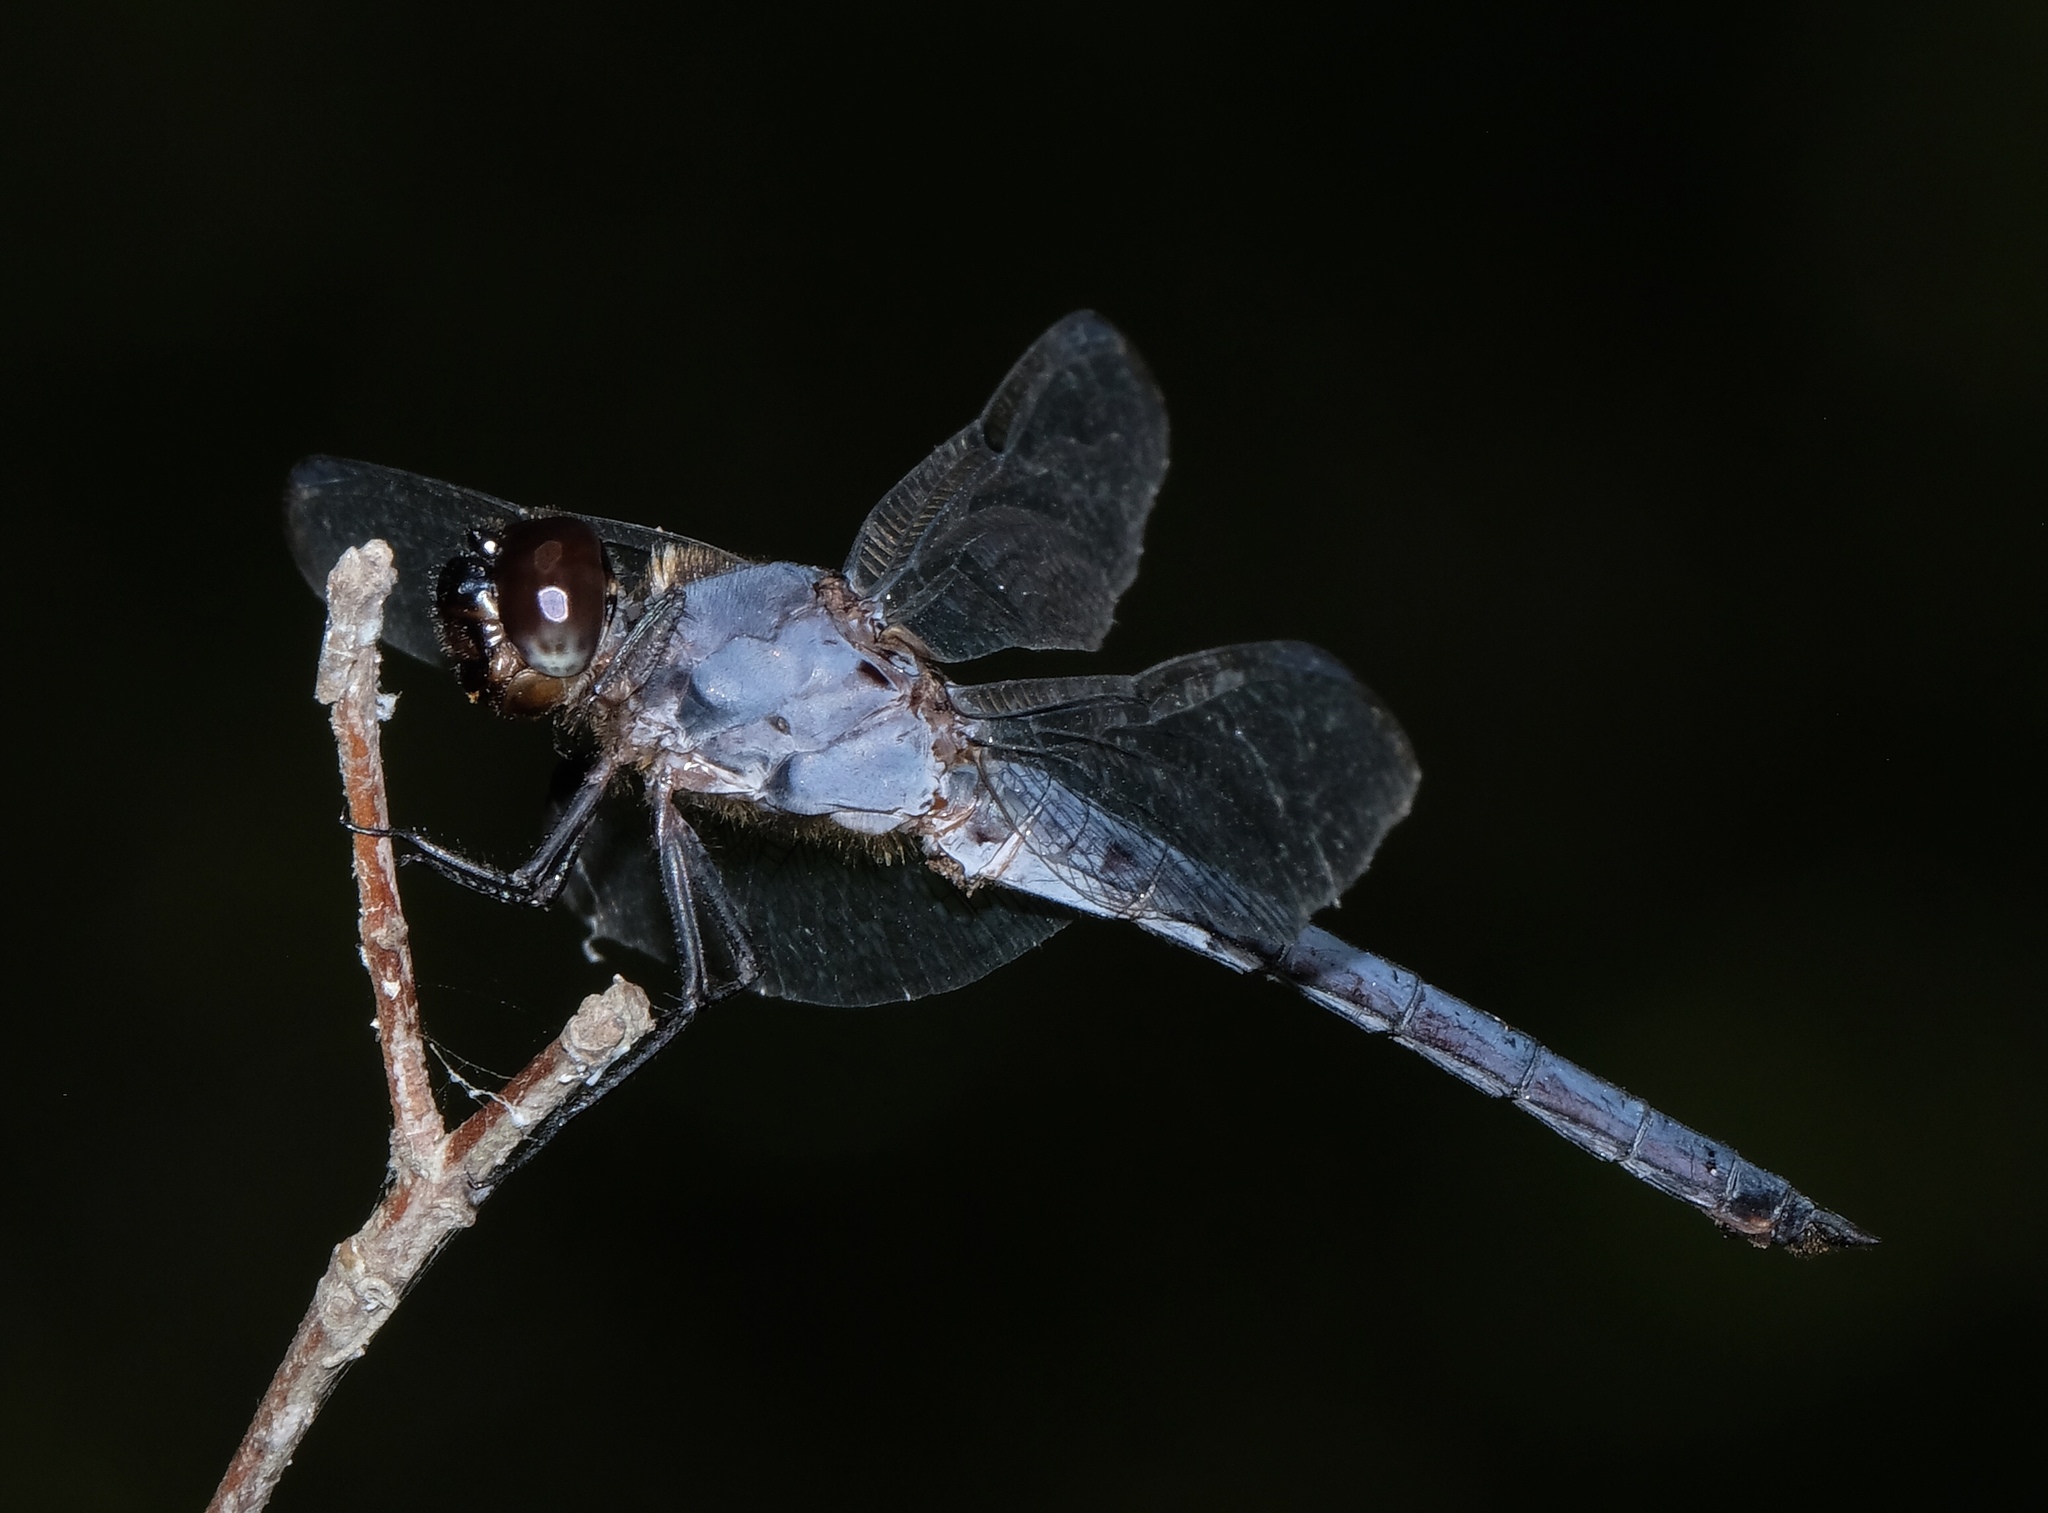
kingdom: Animalia
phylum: Arthropoda
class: Insecta
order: Odonata
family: Libellulidae
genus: Libellula
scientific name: Libellula incesta
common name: Slaty skimmer
